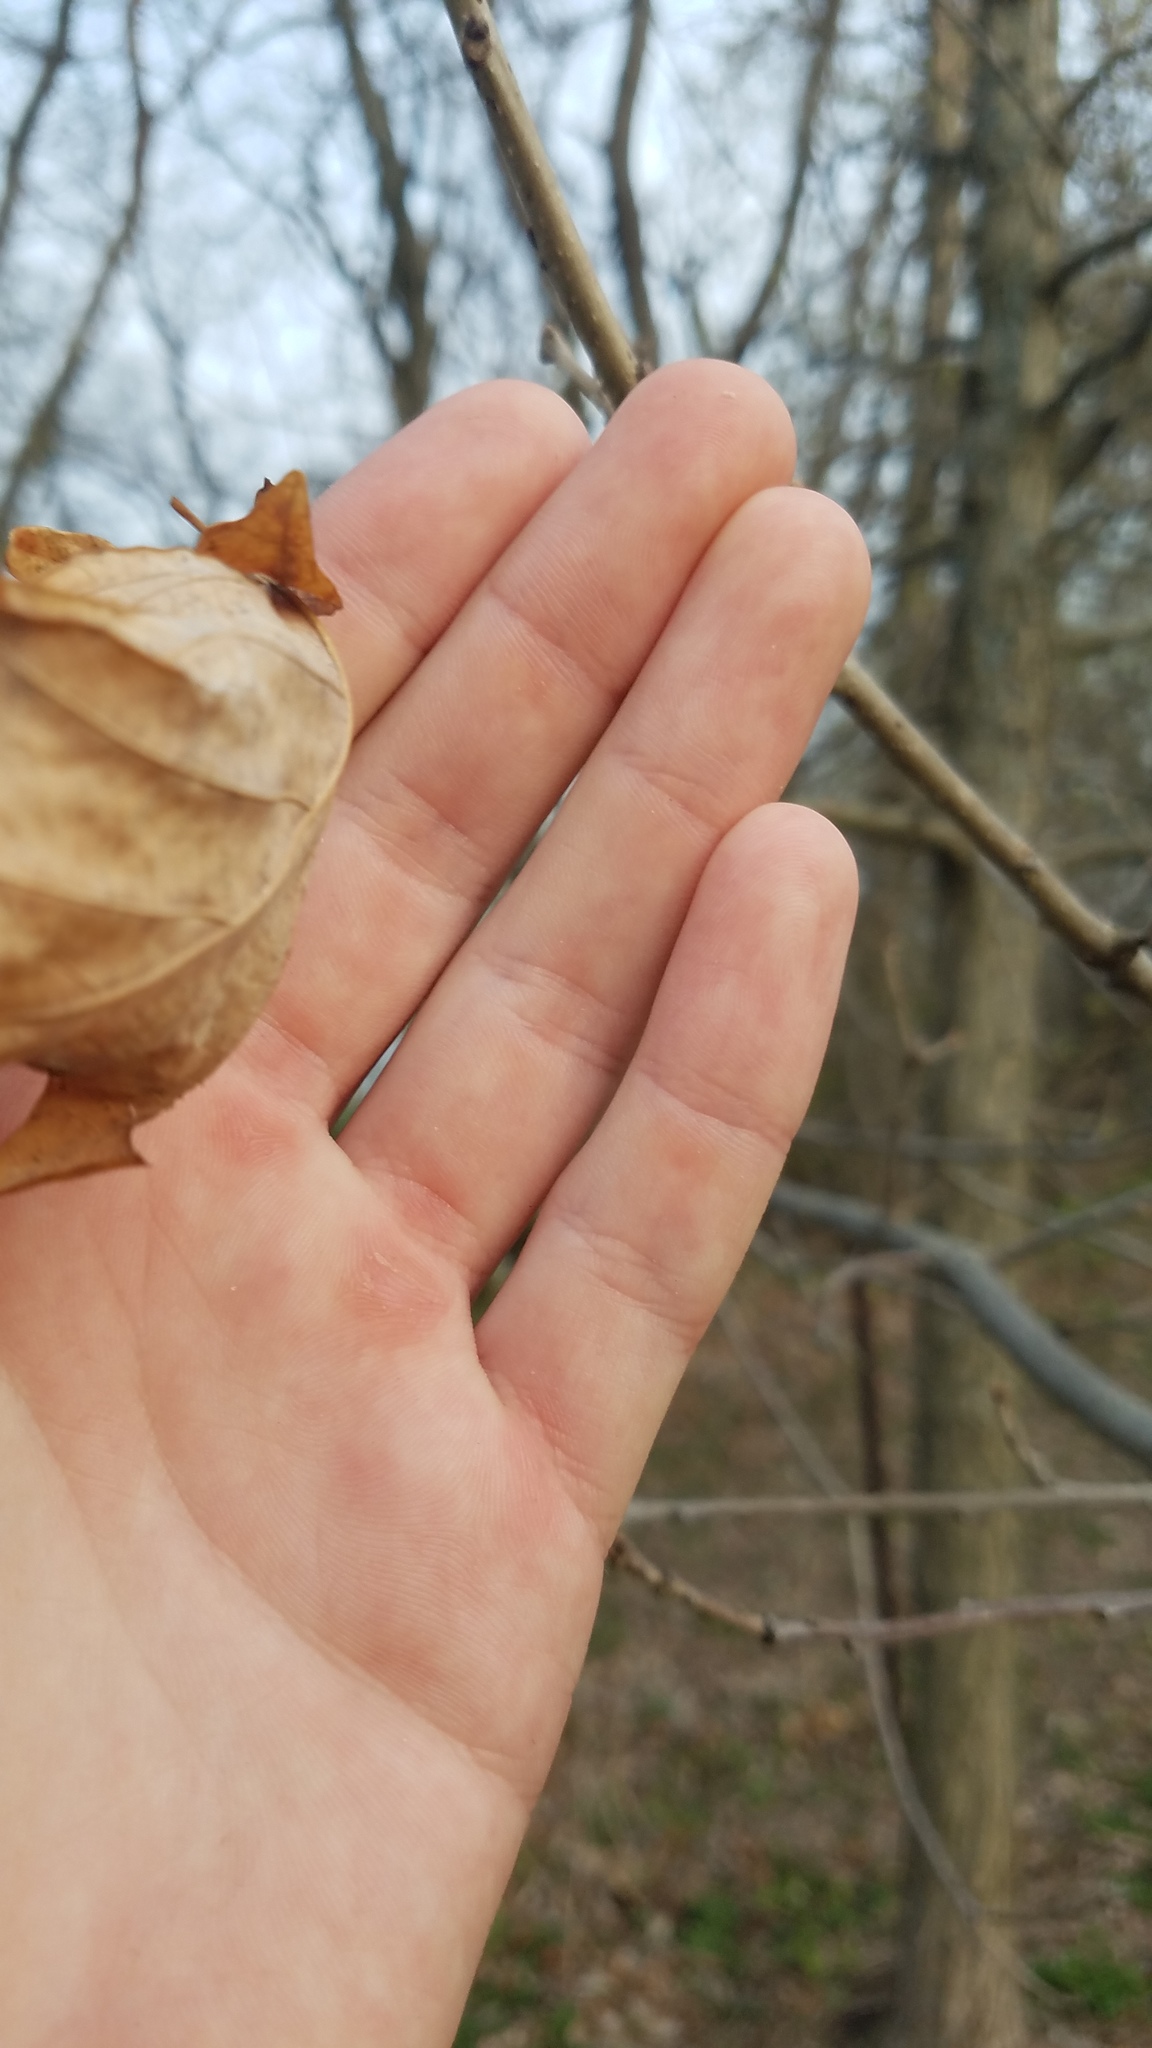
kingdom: Animalia
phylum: Arthropoda
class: Insecta
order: Hymenoptera
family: Cynipidae
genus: Andricus
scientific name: Andricus
